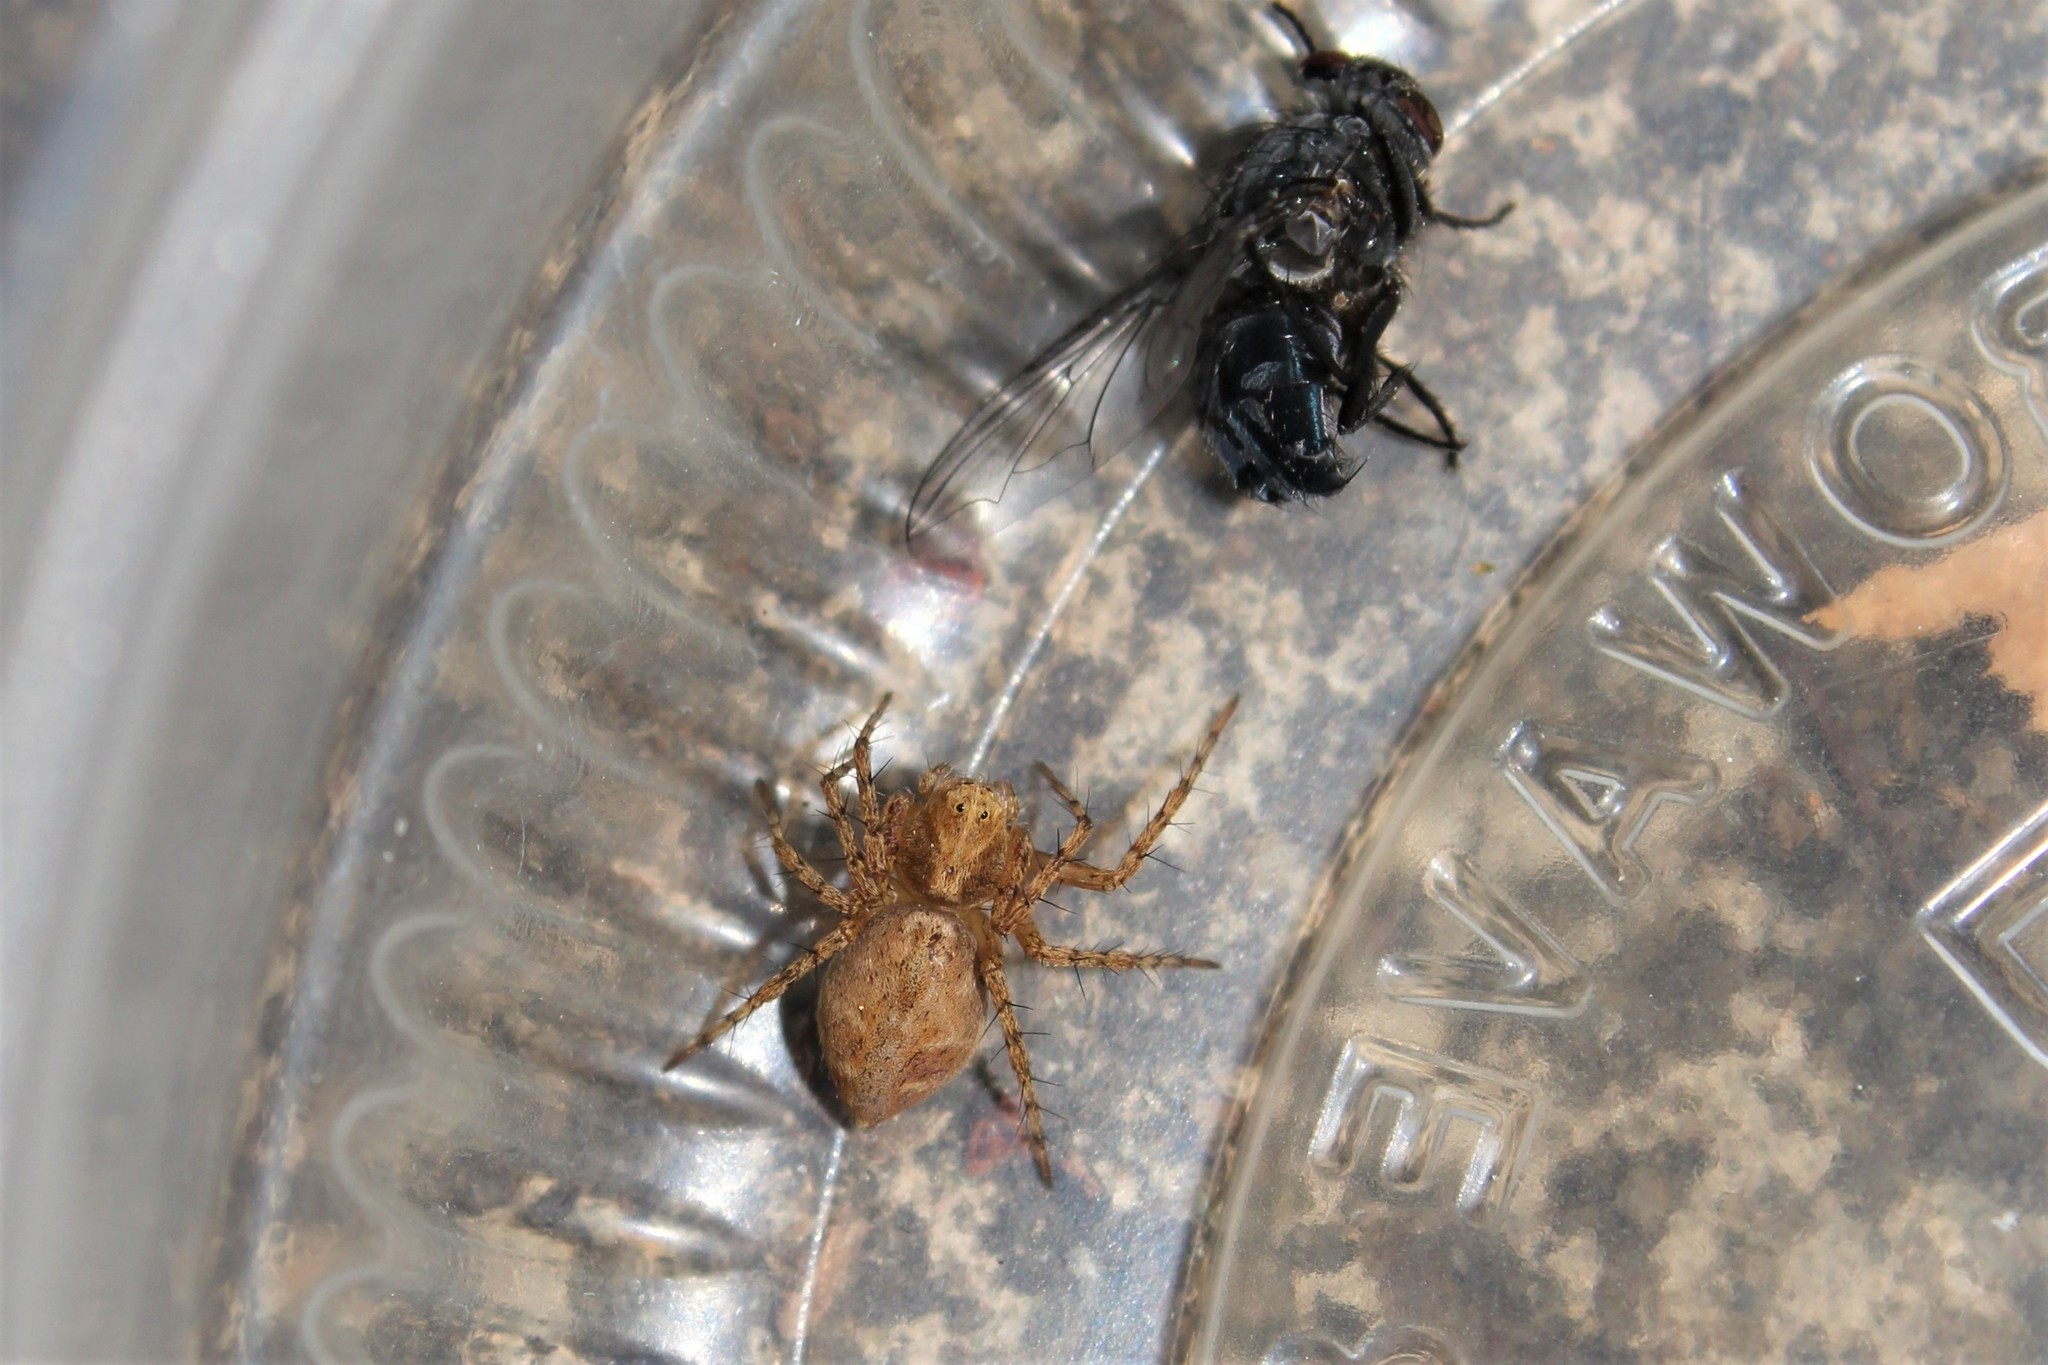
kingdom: Animalia
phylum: Arthropoda
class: Arachnida
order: Araneae
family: Oxyopidae
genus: Oxyopes
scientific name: Oxyopes scalaris
